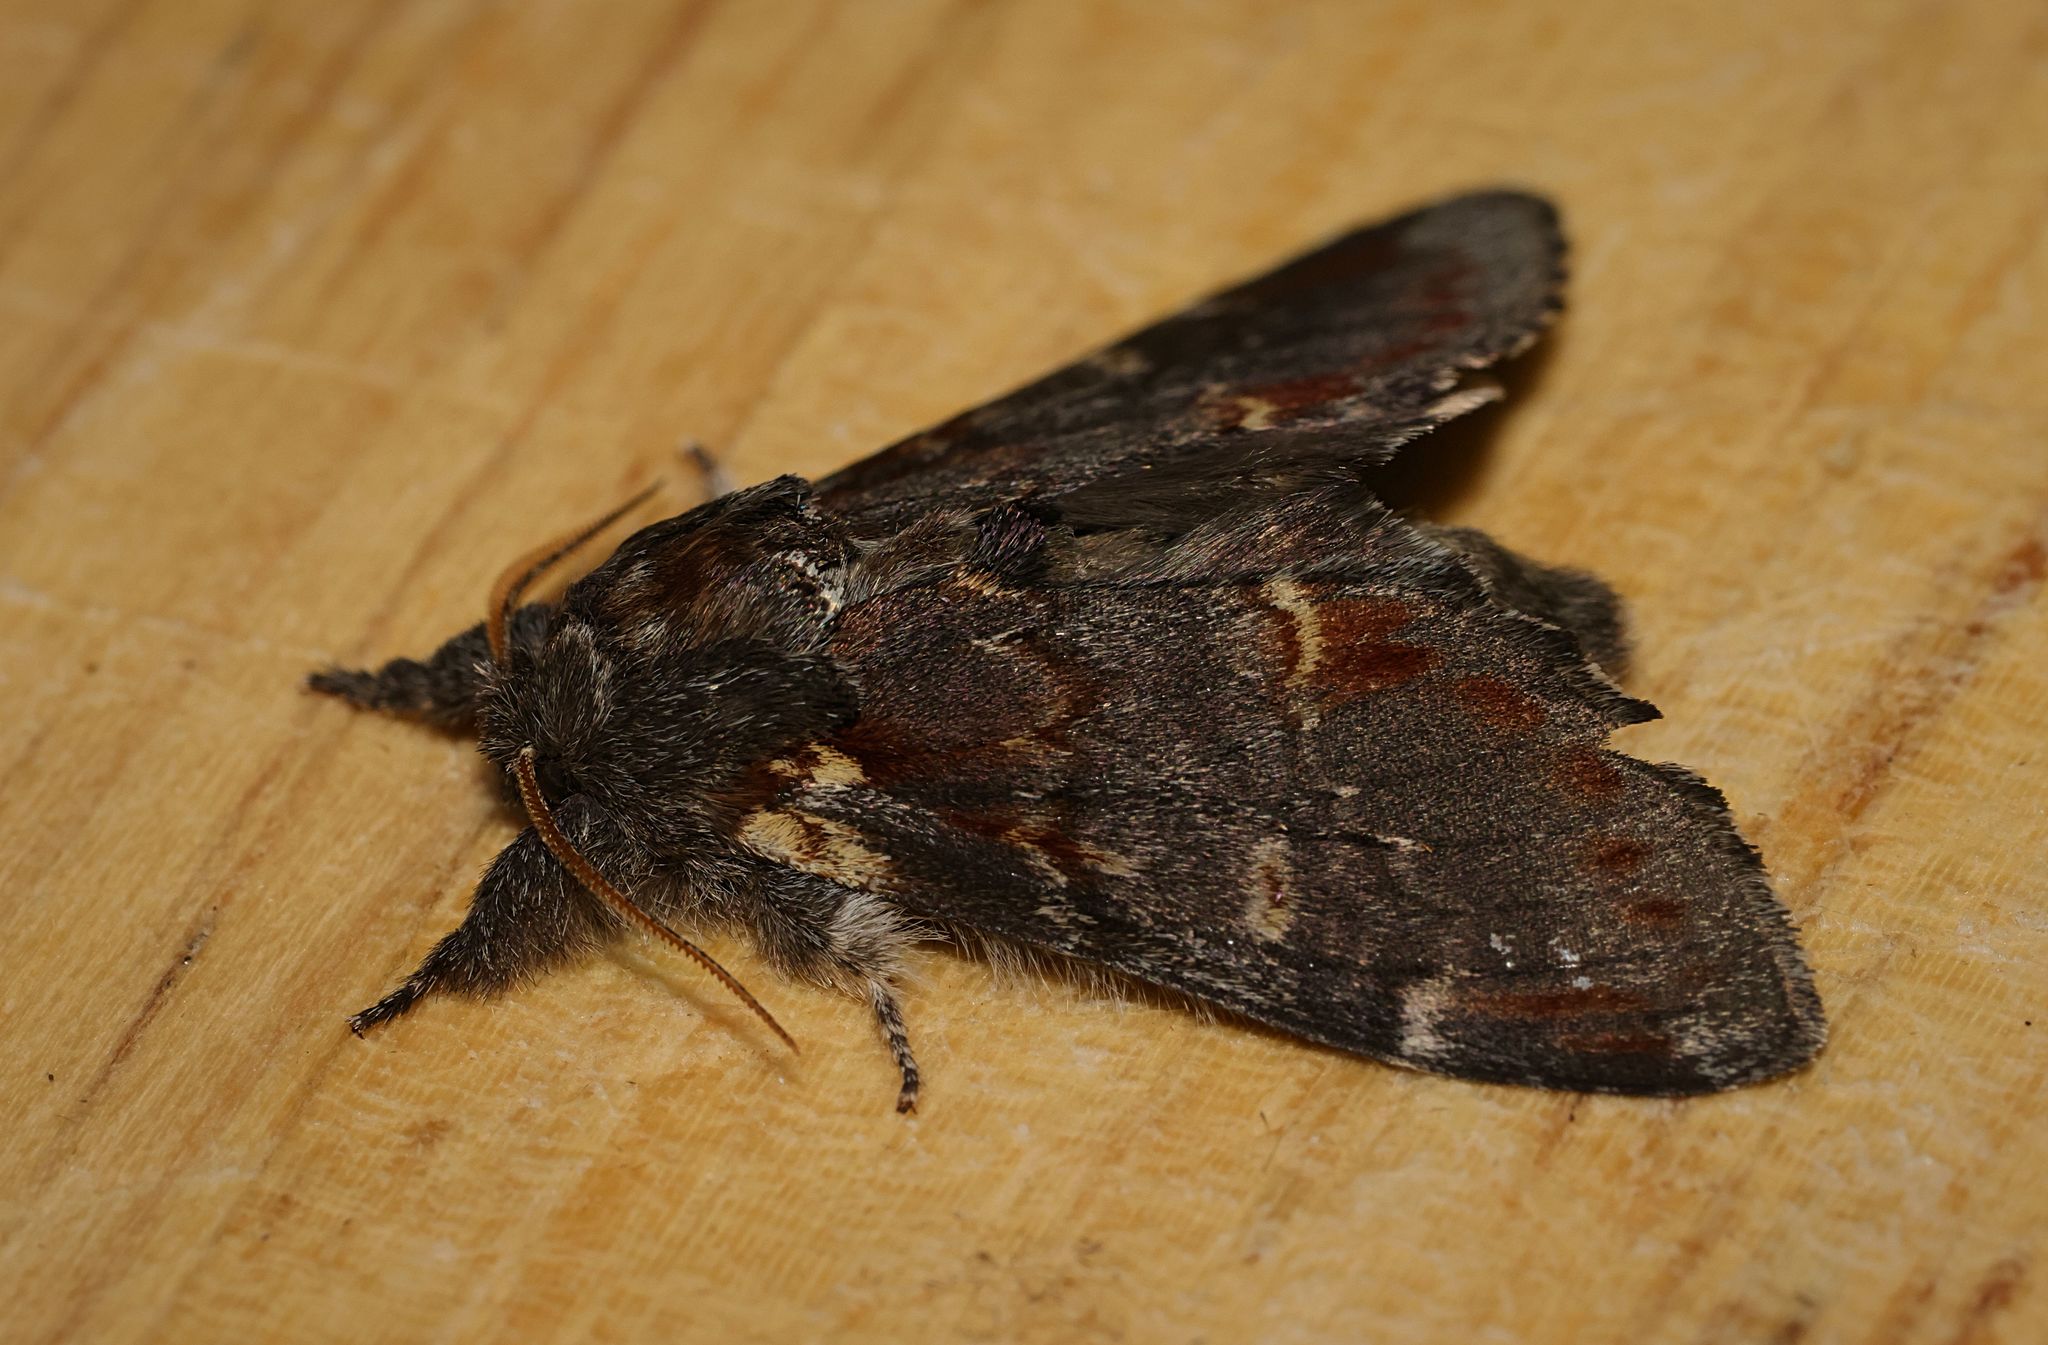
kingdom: Animalia
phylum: Arthropoda
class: Insecta
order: Lepidoptera
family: Notodontidae
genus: Notodonta
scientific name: Notodonta dromedarius
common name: Iron prominent
